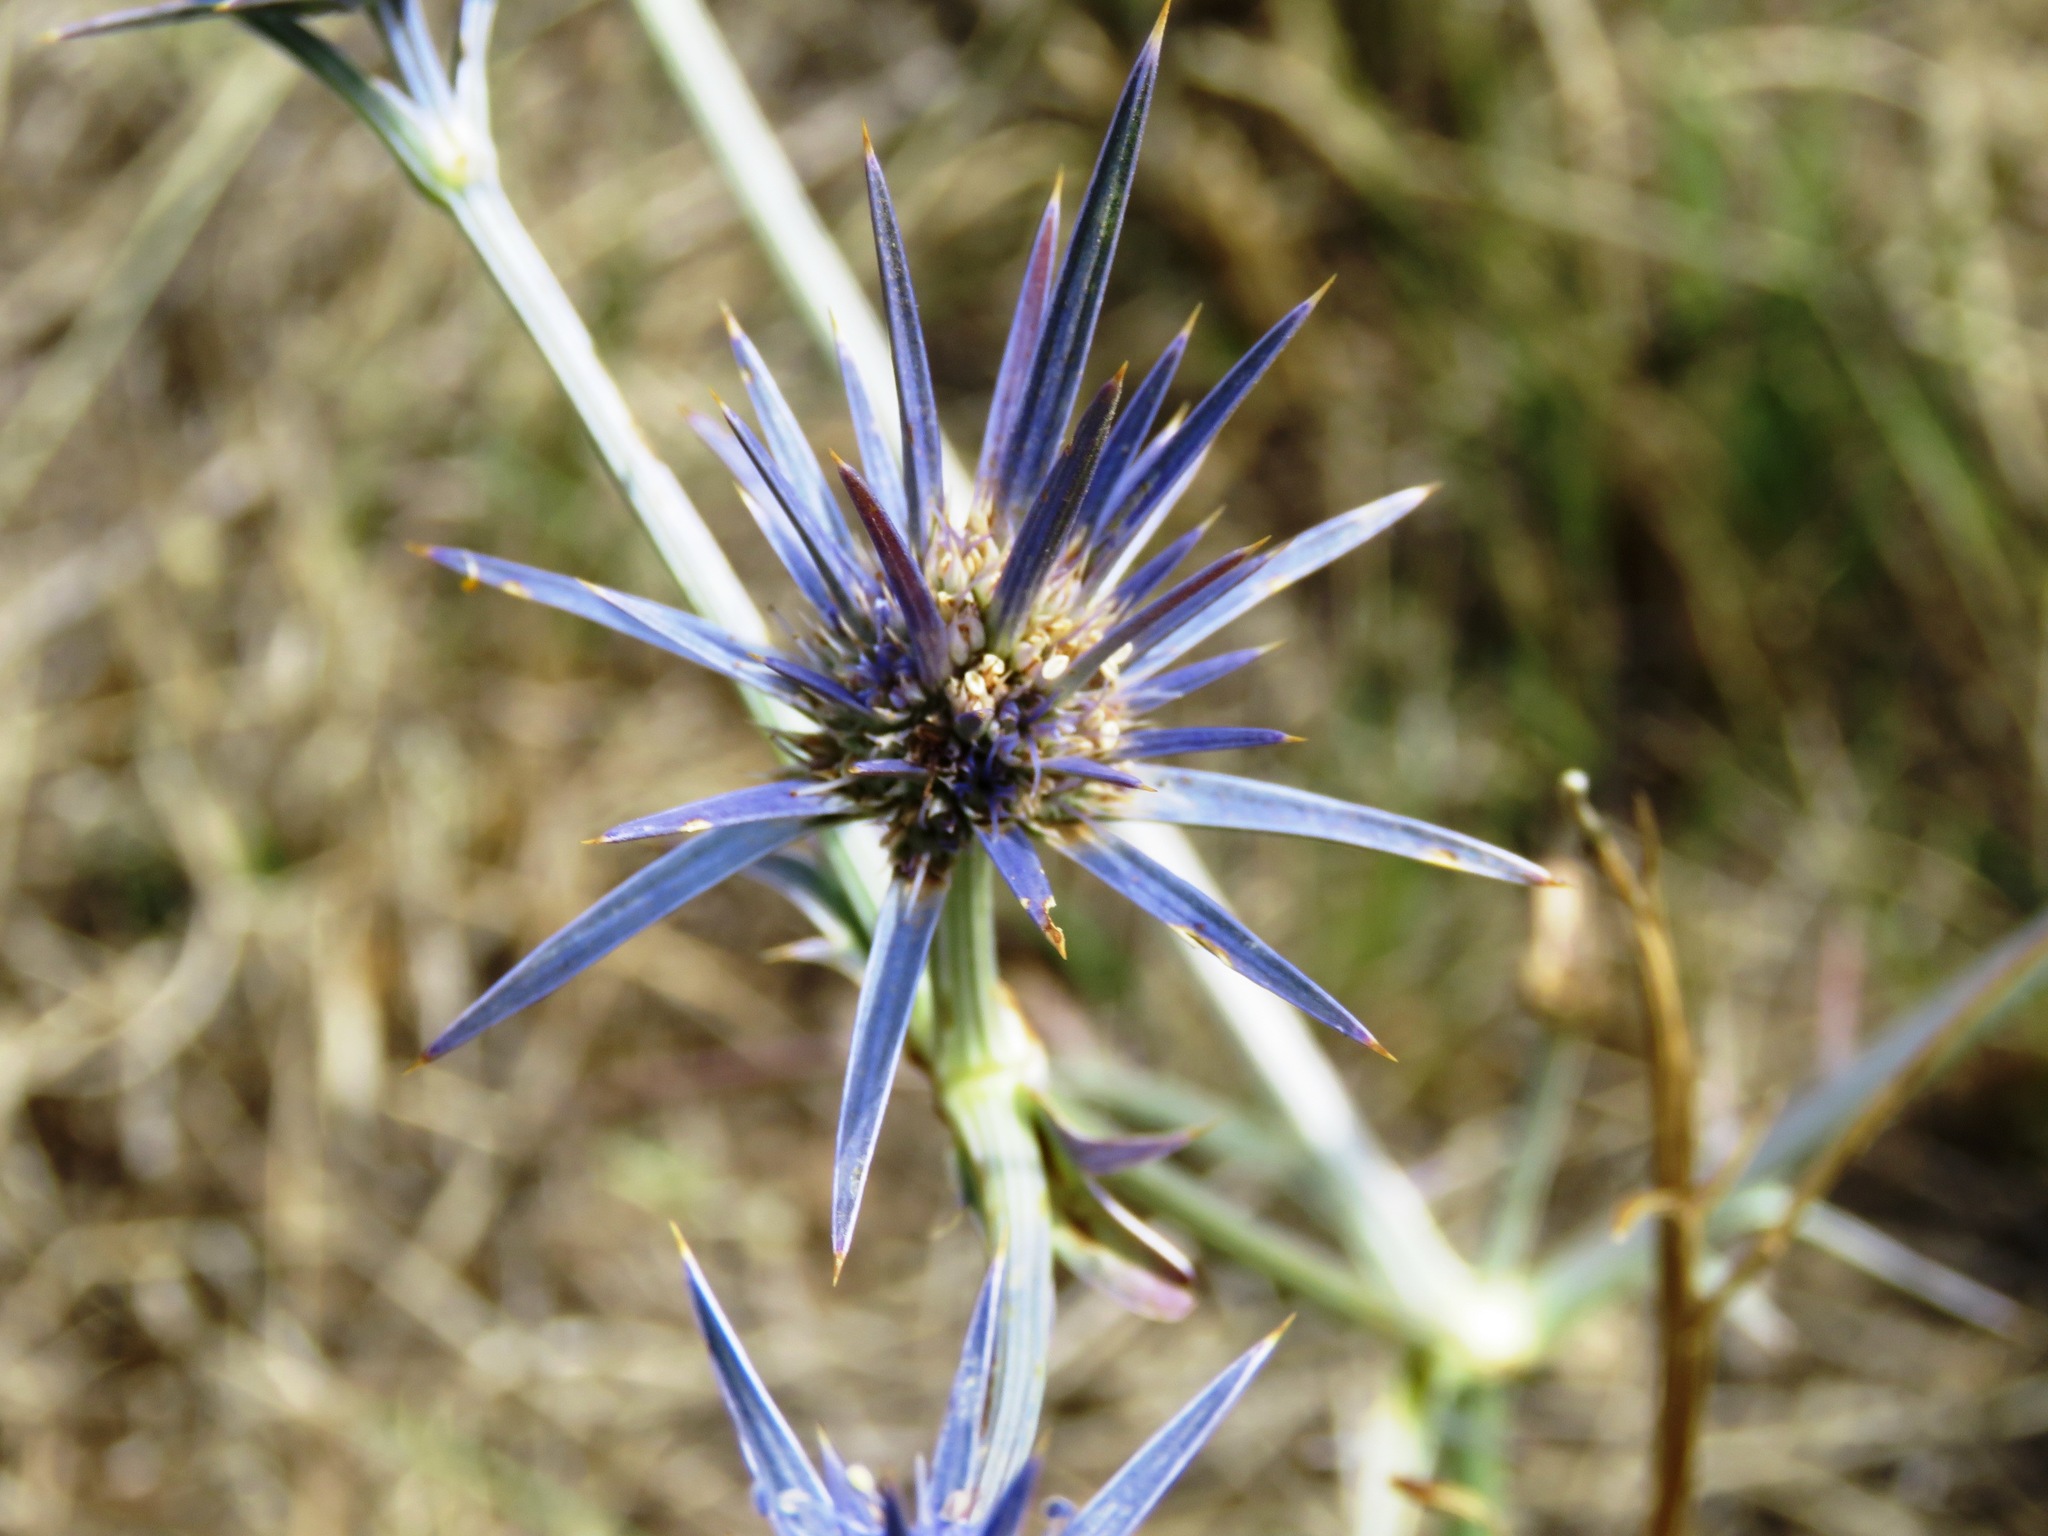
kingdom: Plantae
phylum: Tracheophyta
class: Magnoliopsida
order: Apiales
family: Apiaceae
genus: Eryngium
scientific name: Eryngium ovinum
